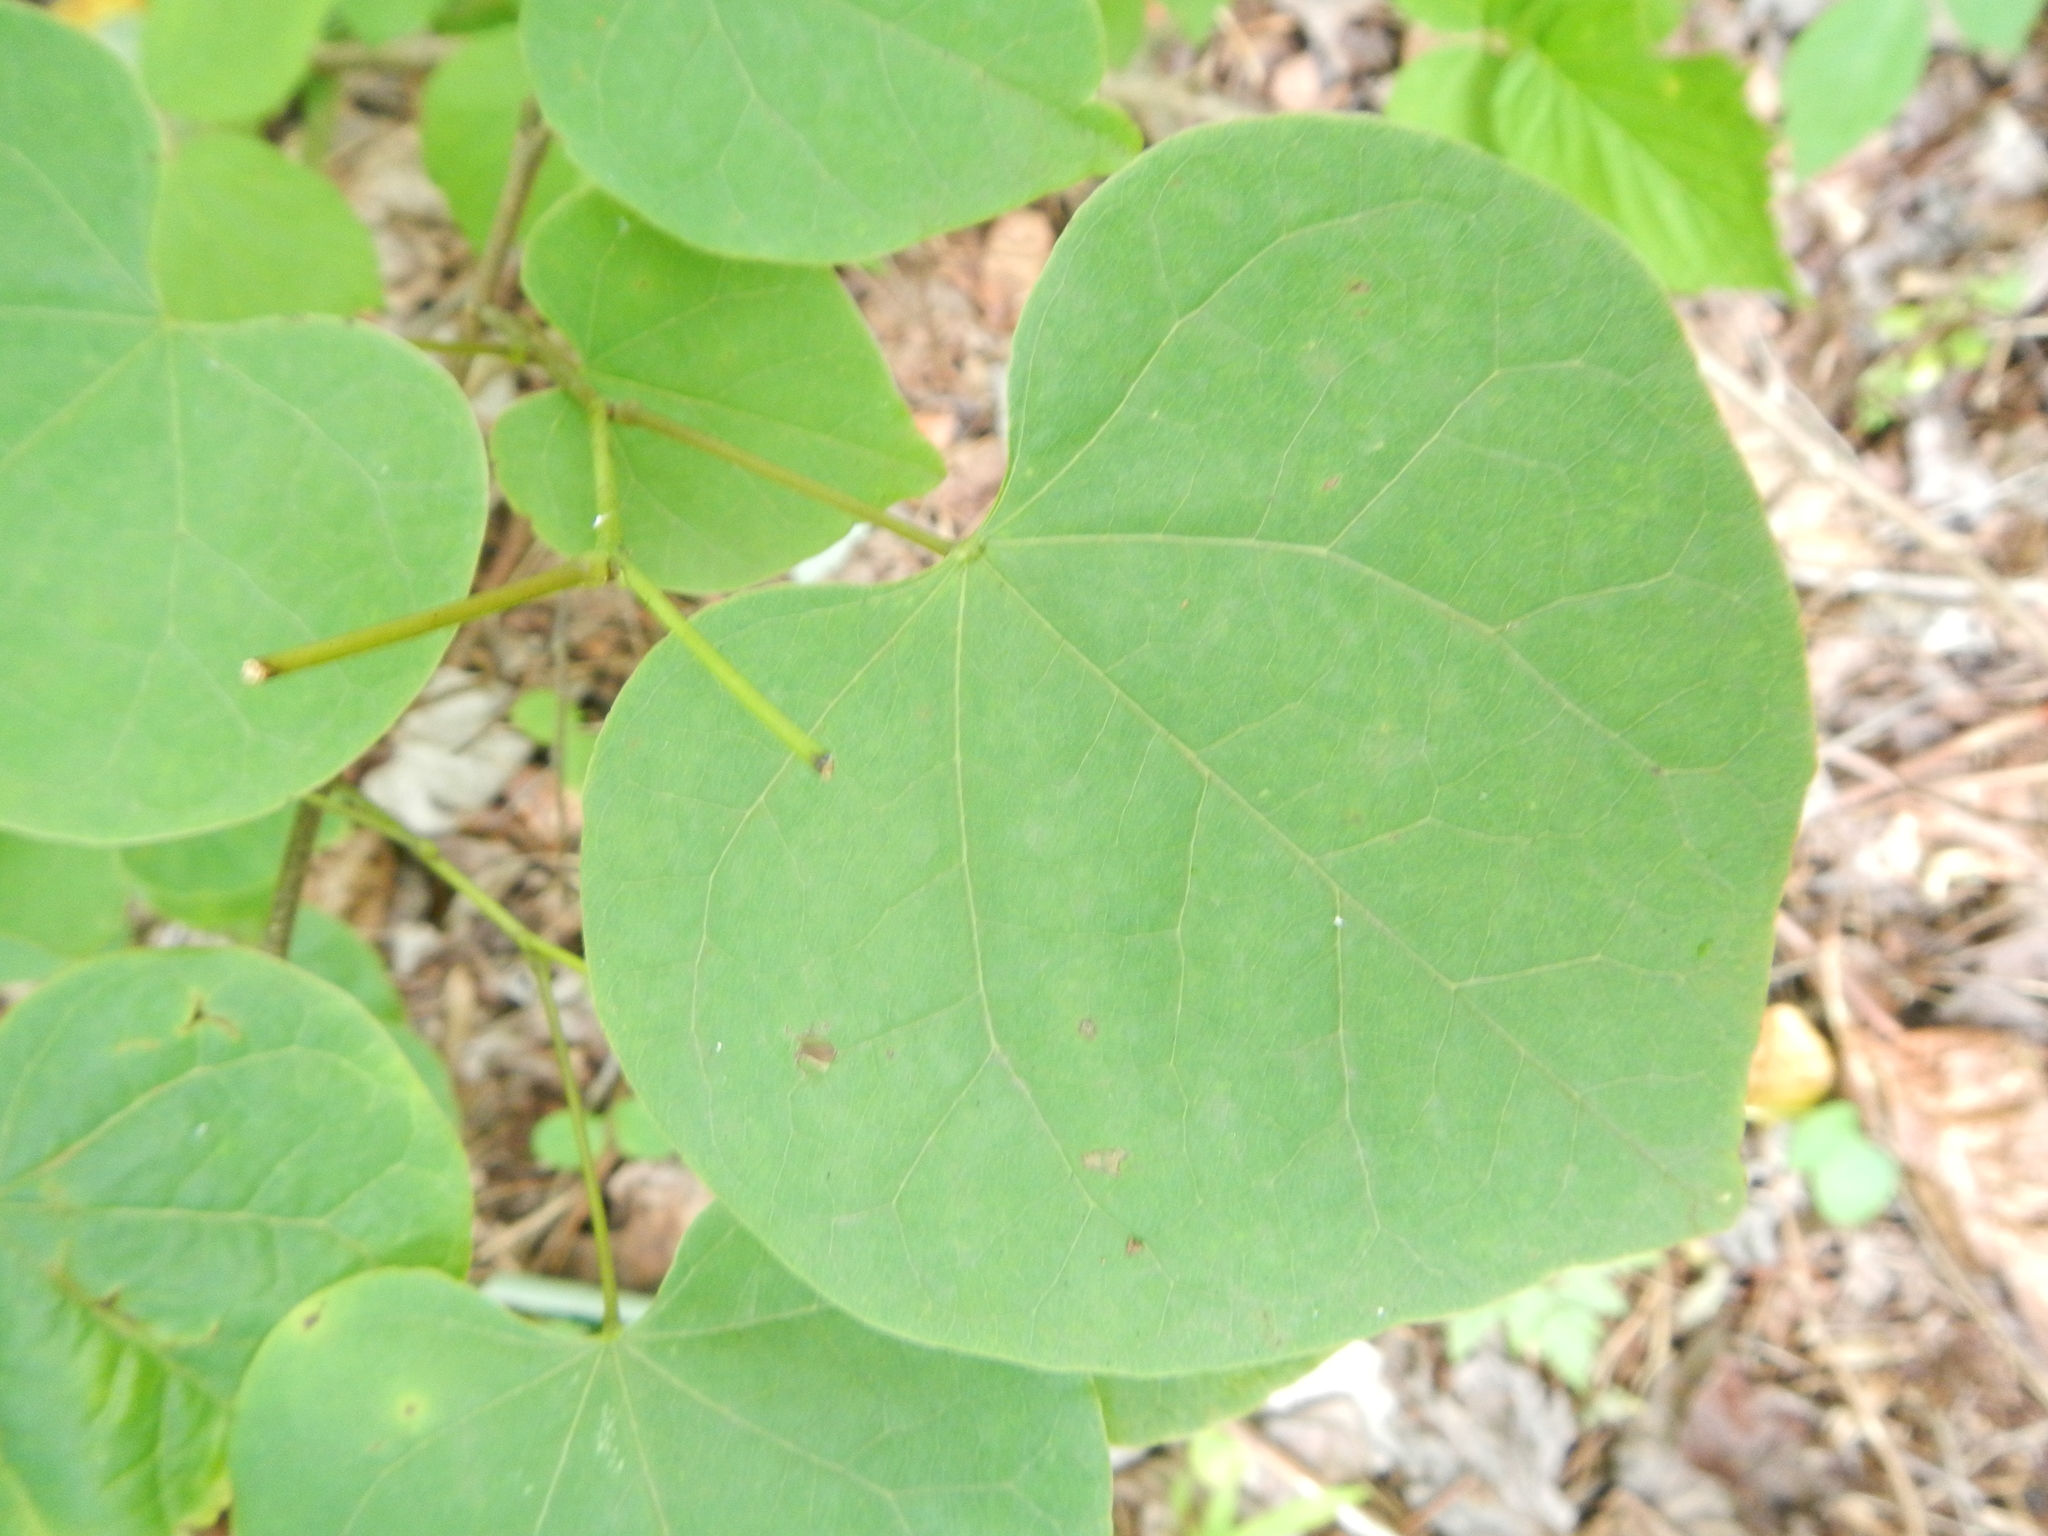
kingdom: Plantae
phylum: Tracheophyta
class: Magnoliopsida
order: Fabales
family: Fabaceae
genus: Cercis
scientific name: Cercis canadensis
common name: Eastern redbud
